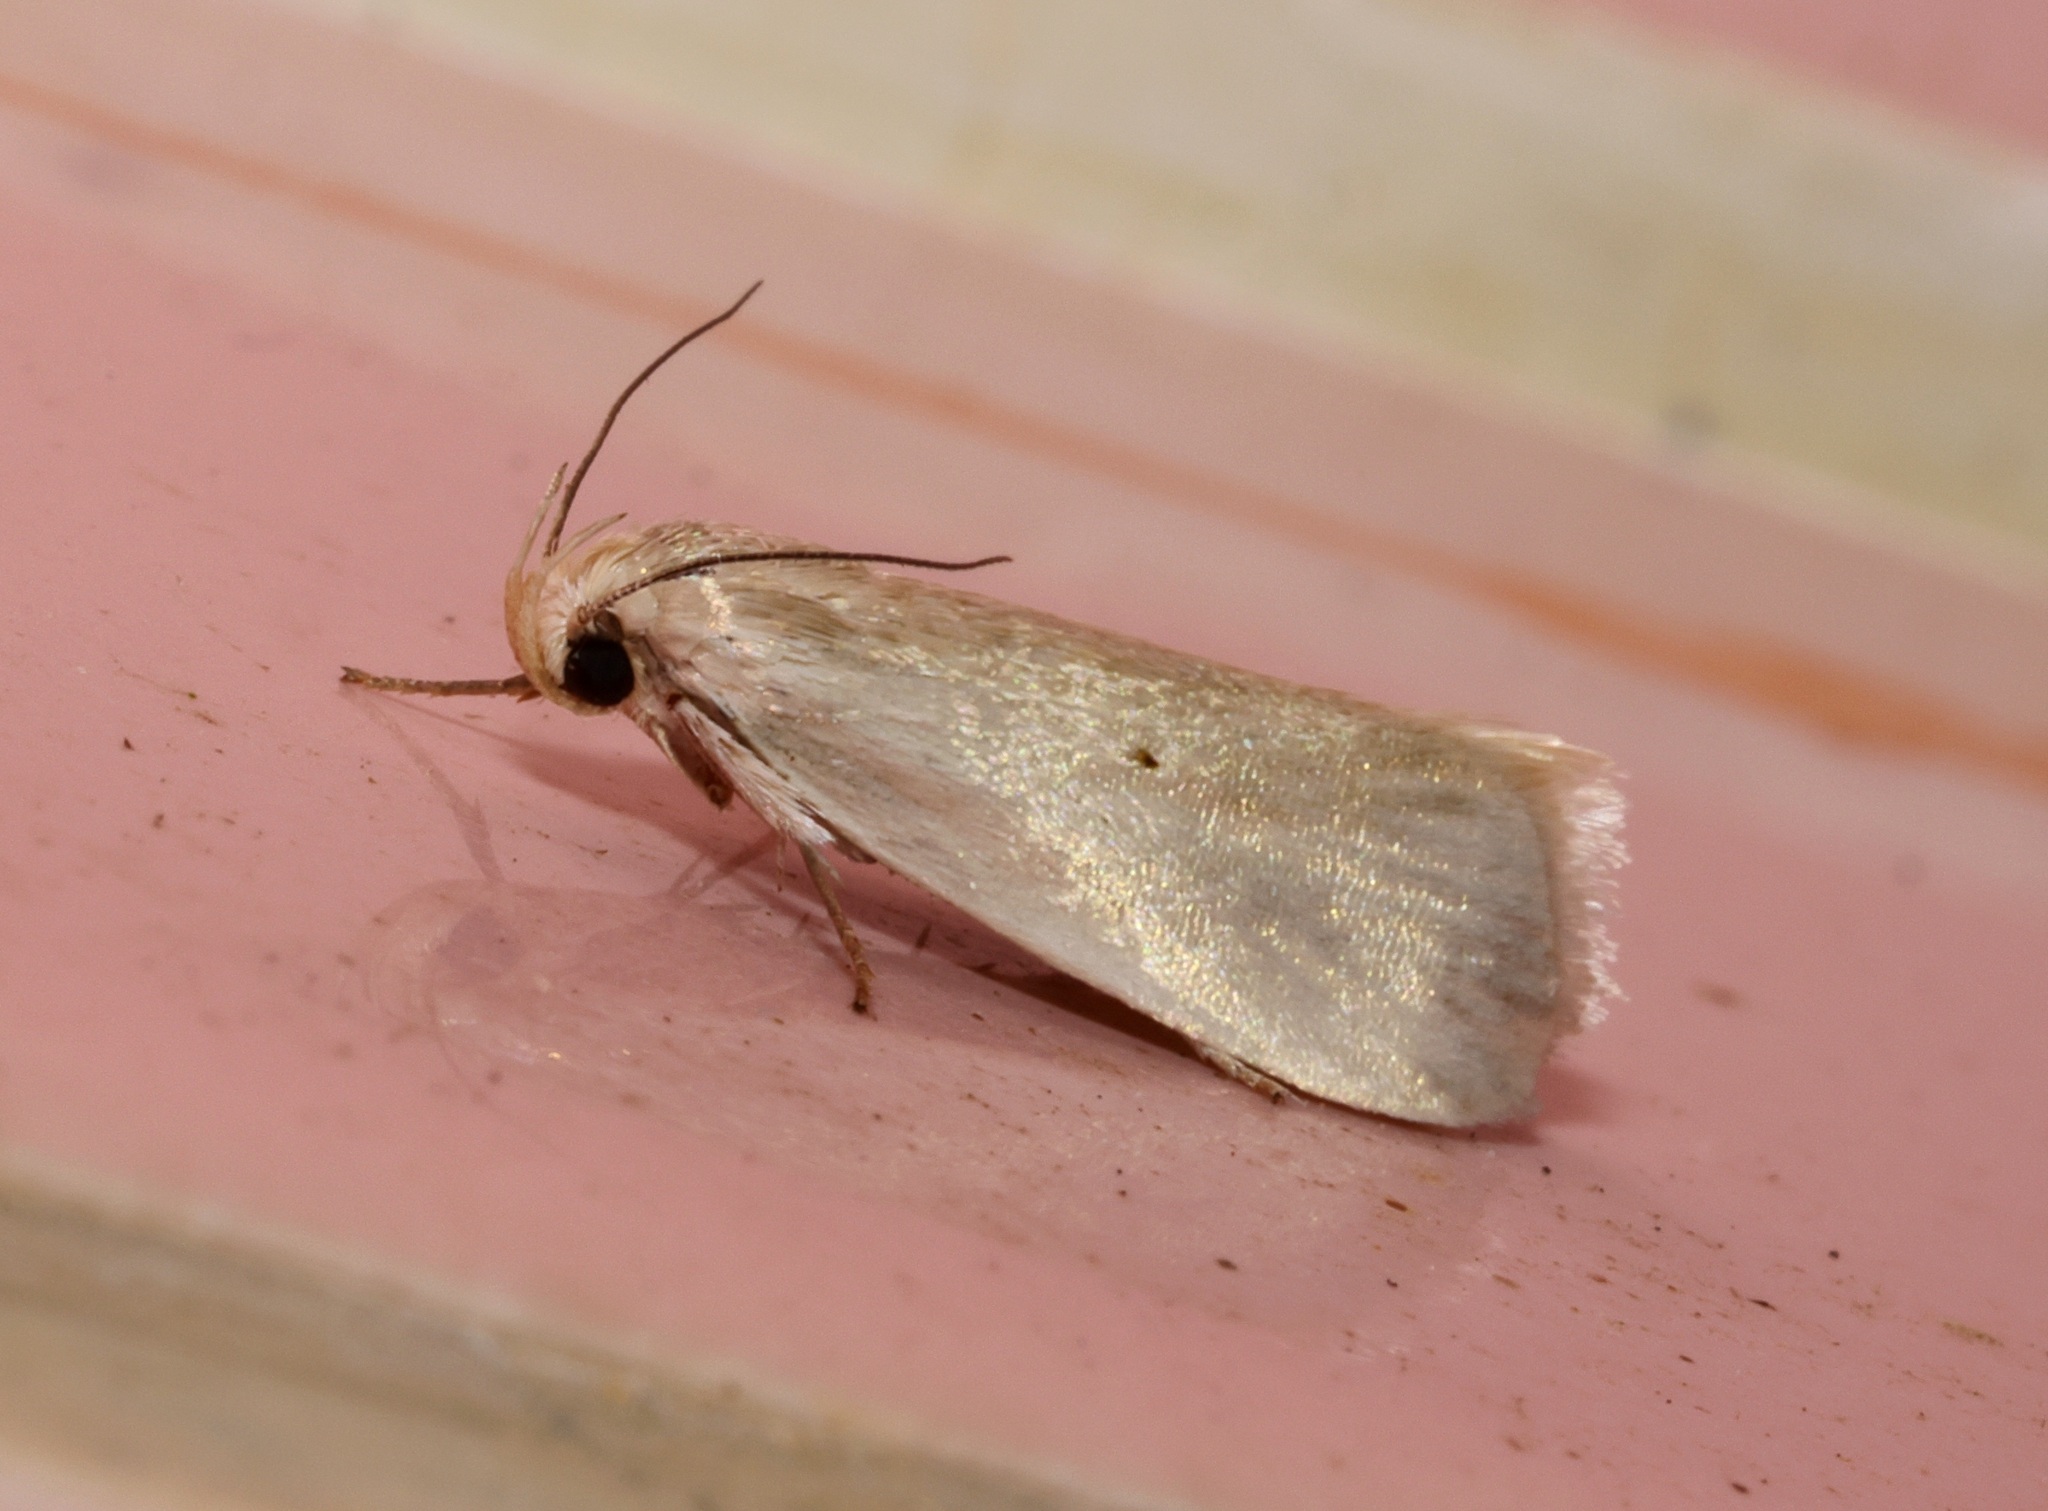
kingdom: Animalia
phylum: Arthropoda
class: Insecta
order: Lepidoptera
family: Xyloryctidae
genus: Athrypsiastis
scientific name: Athrypsiastis salva
